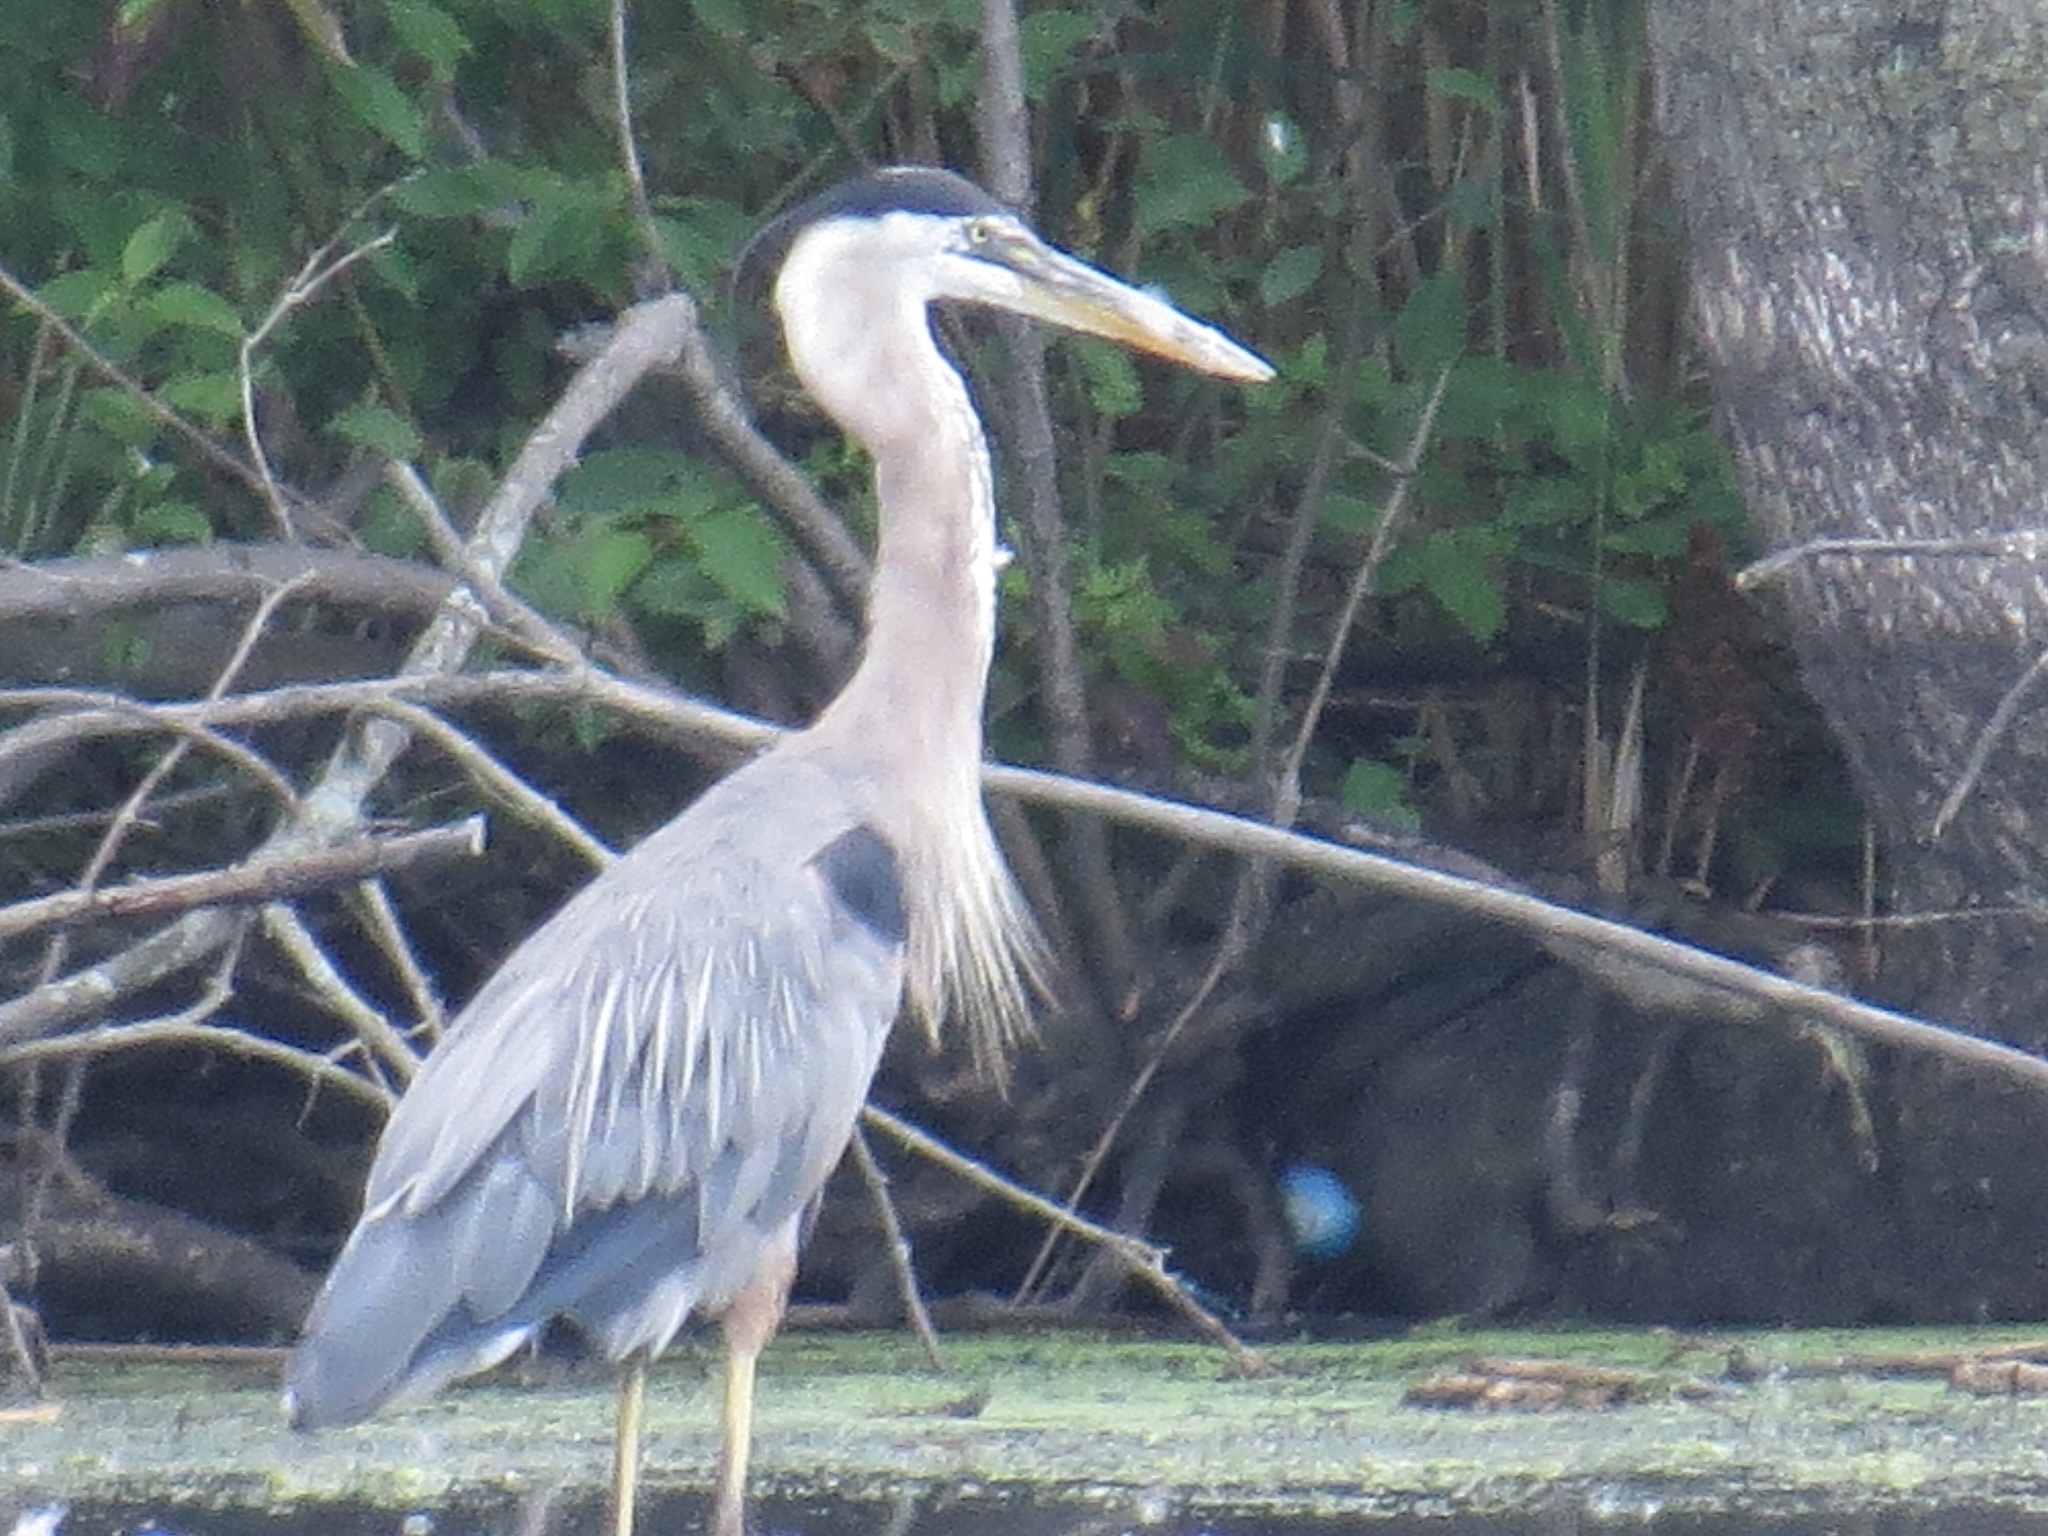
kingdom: Animalia
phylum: Chordata
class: Aves
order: Pelecaniformes
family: Ardeidae
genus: Ardea
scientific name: Ardea herodias
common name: Great blue heron
